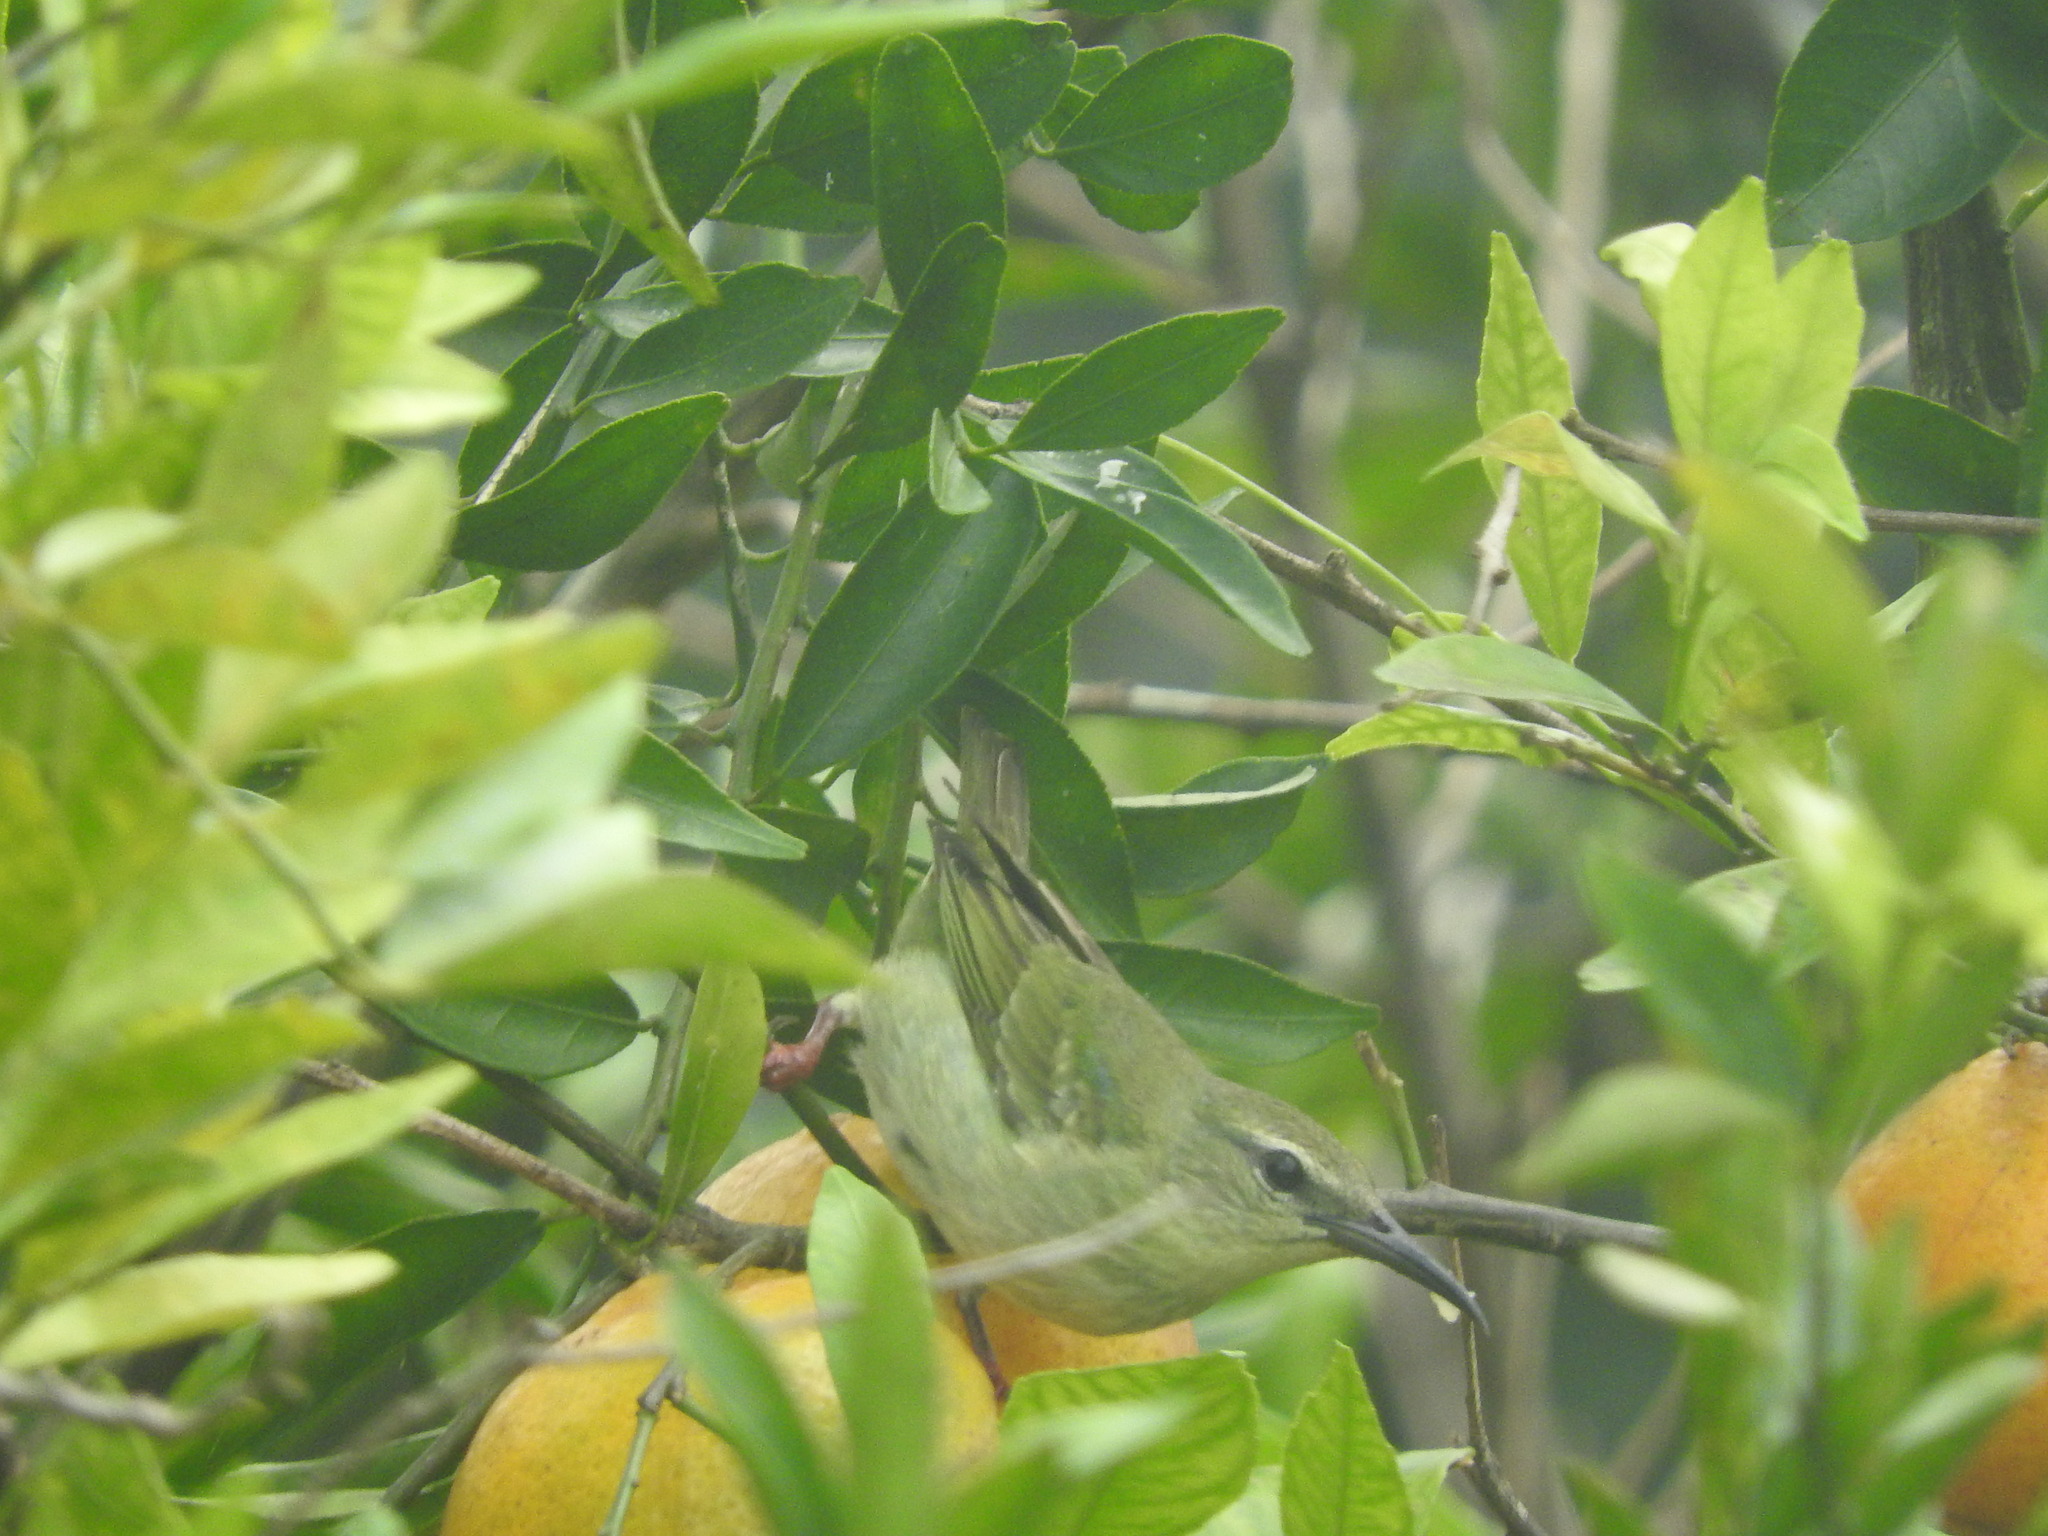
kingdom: Animalia
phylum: Chordata
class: Aves
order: Passeriformes
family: Thraupidae
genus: Cyanerpes
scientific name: Cyanerpes cyaneus
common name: Red-legged honeycreeper
